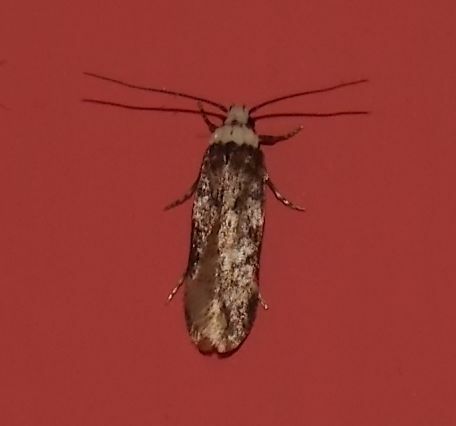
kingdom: Animalia
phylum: Arthropoda
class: Insecta
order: Lepidoptera
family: Oecophoridae
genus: Endrosis
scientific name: Endrosis sarcitrella
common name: White-shouldered house moth
